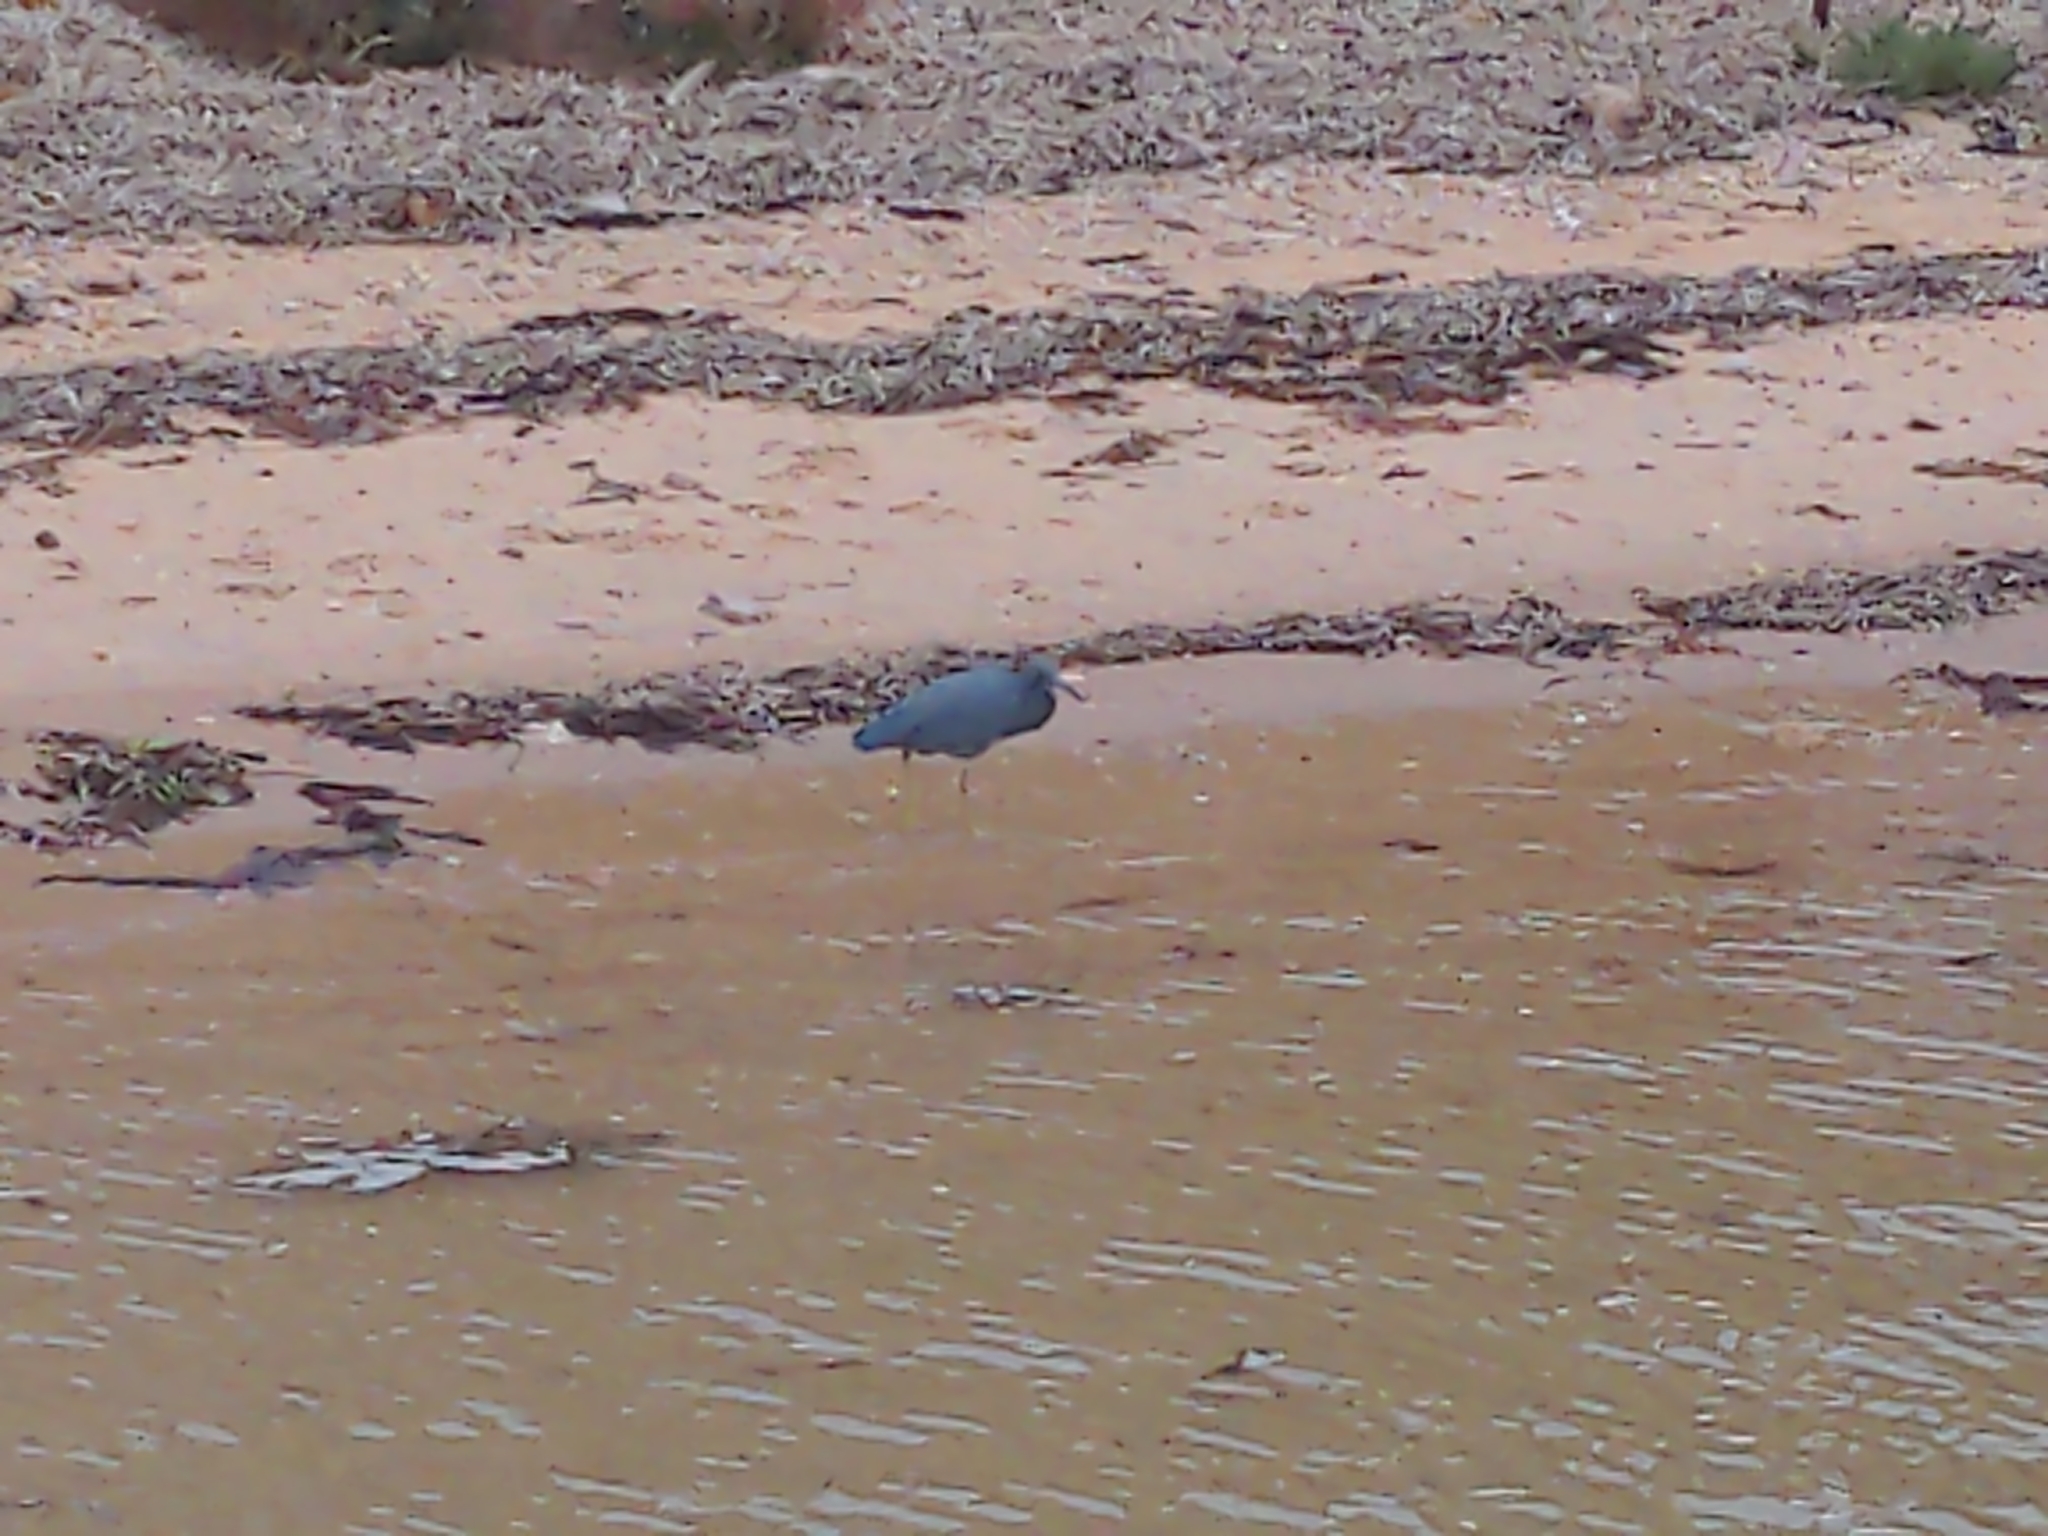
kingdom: Animalia
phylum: Chordata
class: Aves
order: Pelecaniformes
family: Ardeidae
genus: Egretta
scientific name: Egretta sacra
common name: Pacific reef heron
